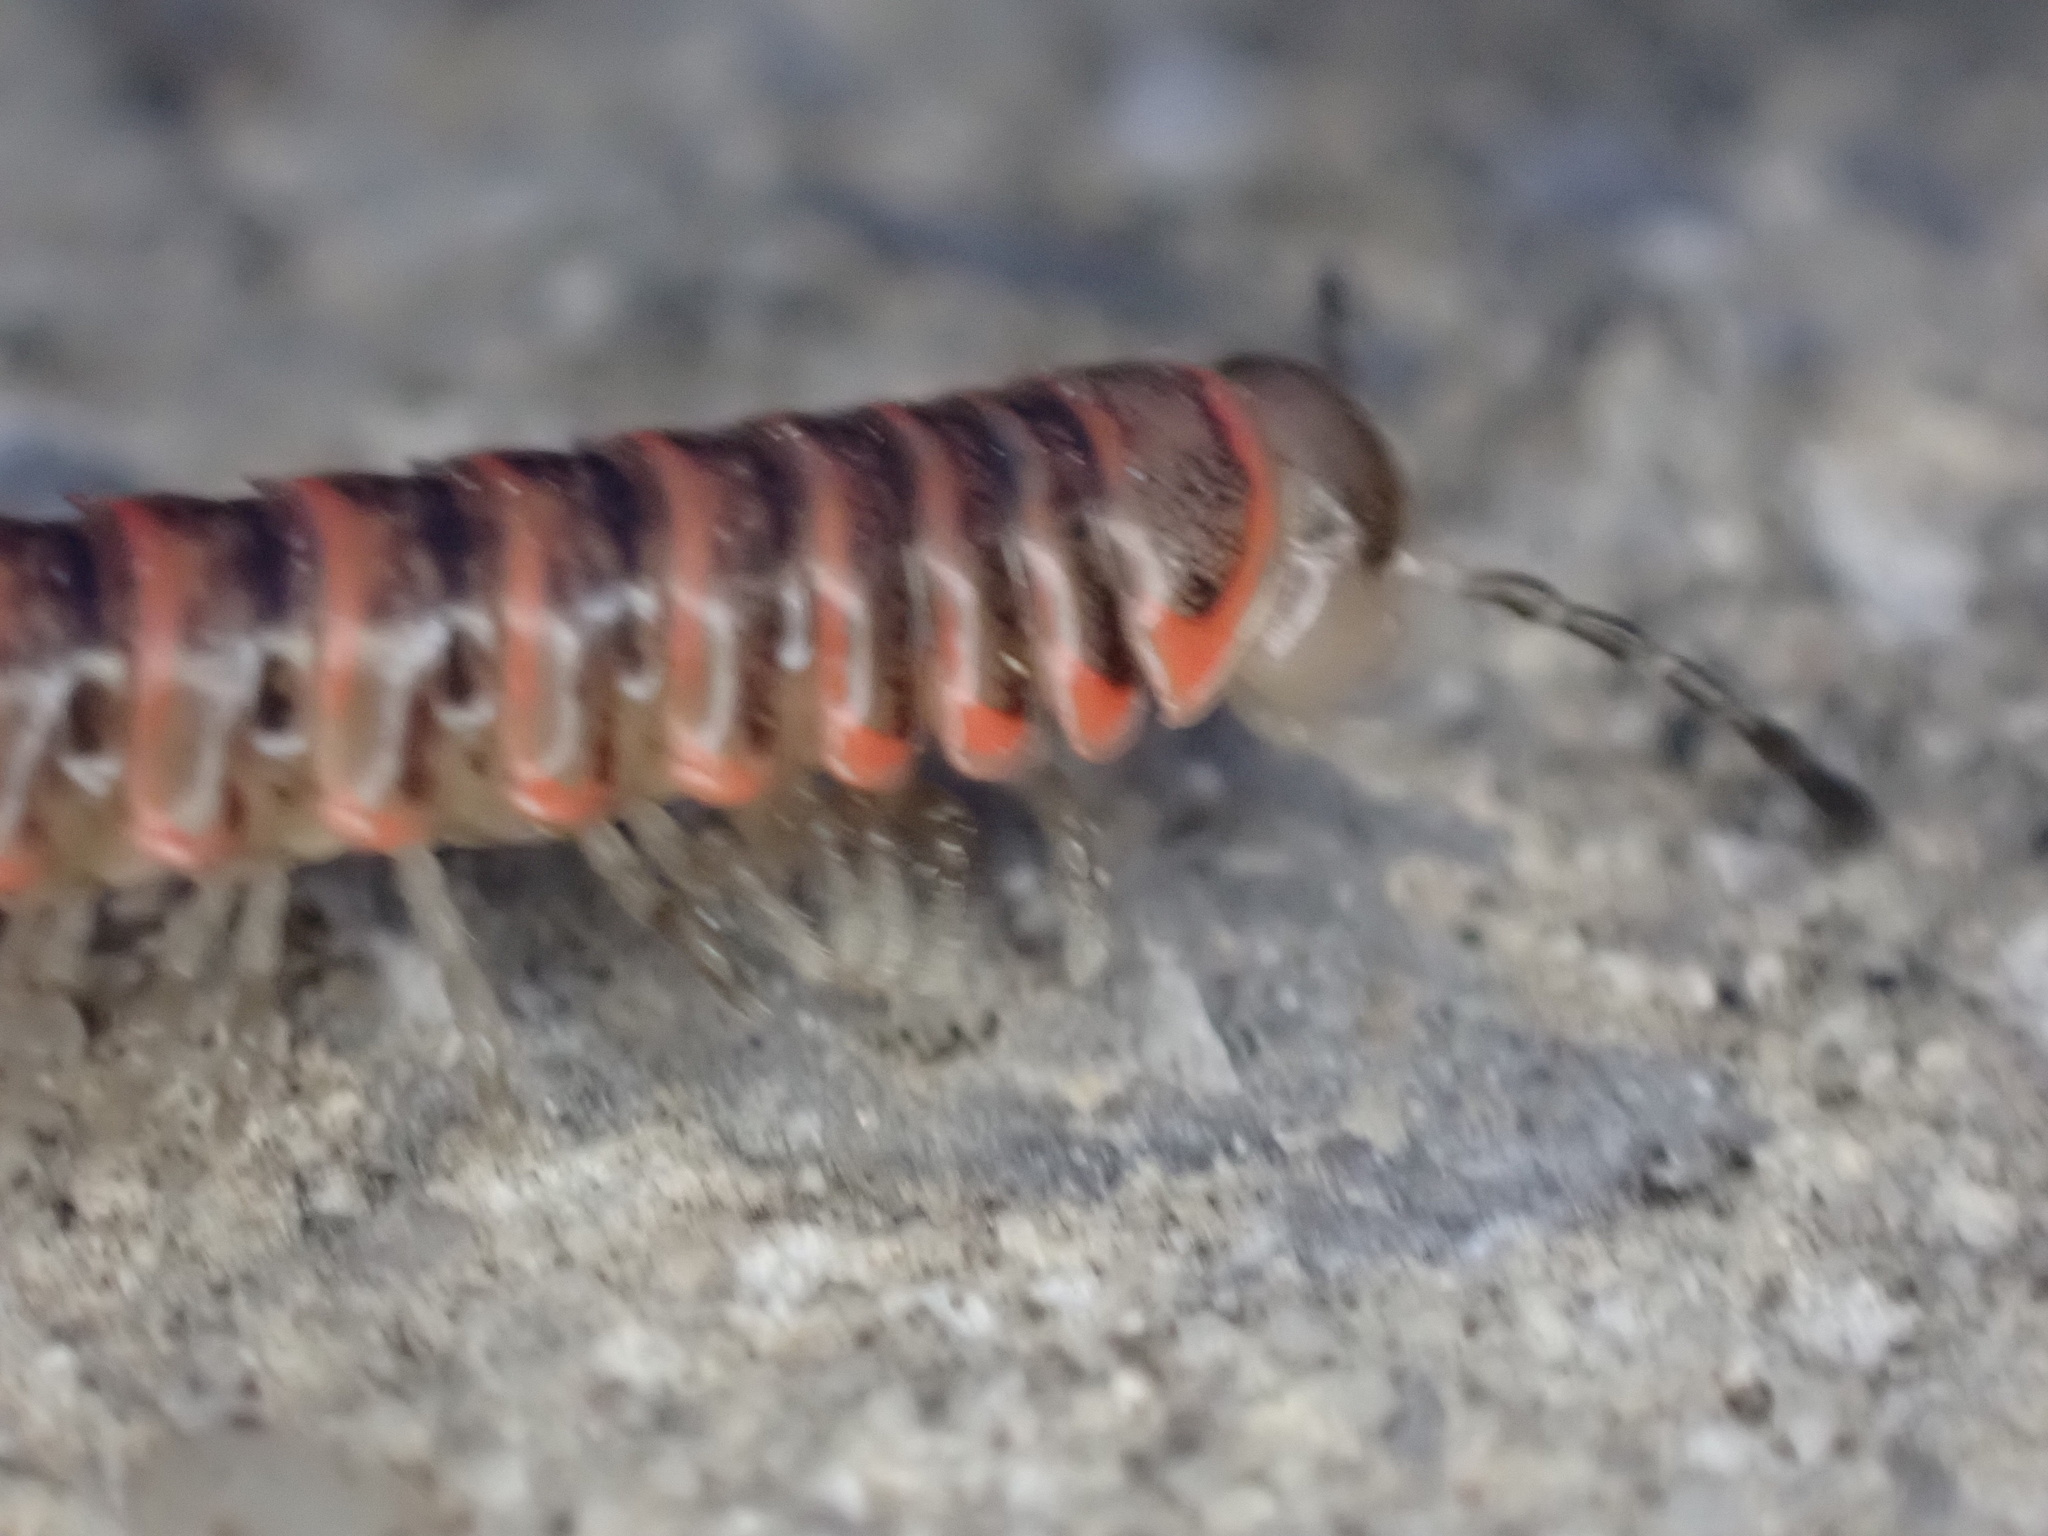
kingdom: Animalia
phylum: Arthropoda
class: Diplopoda
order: Polydesmida
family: Xystodesmidae
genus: Oenomaea
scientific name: Oenomaea pulchella
